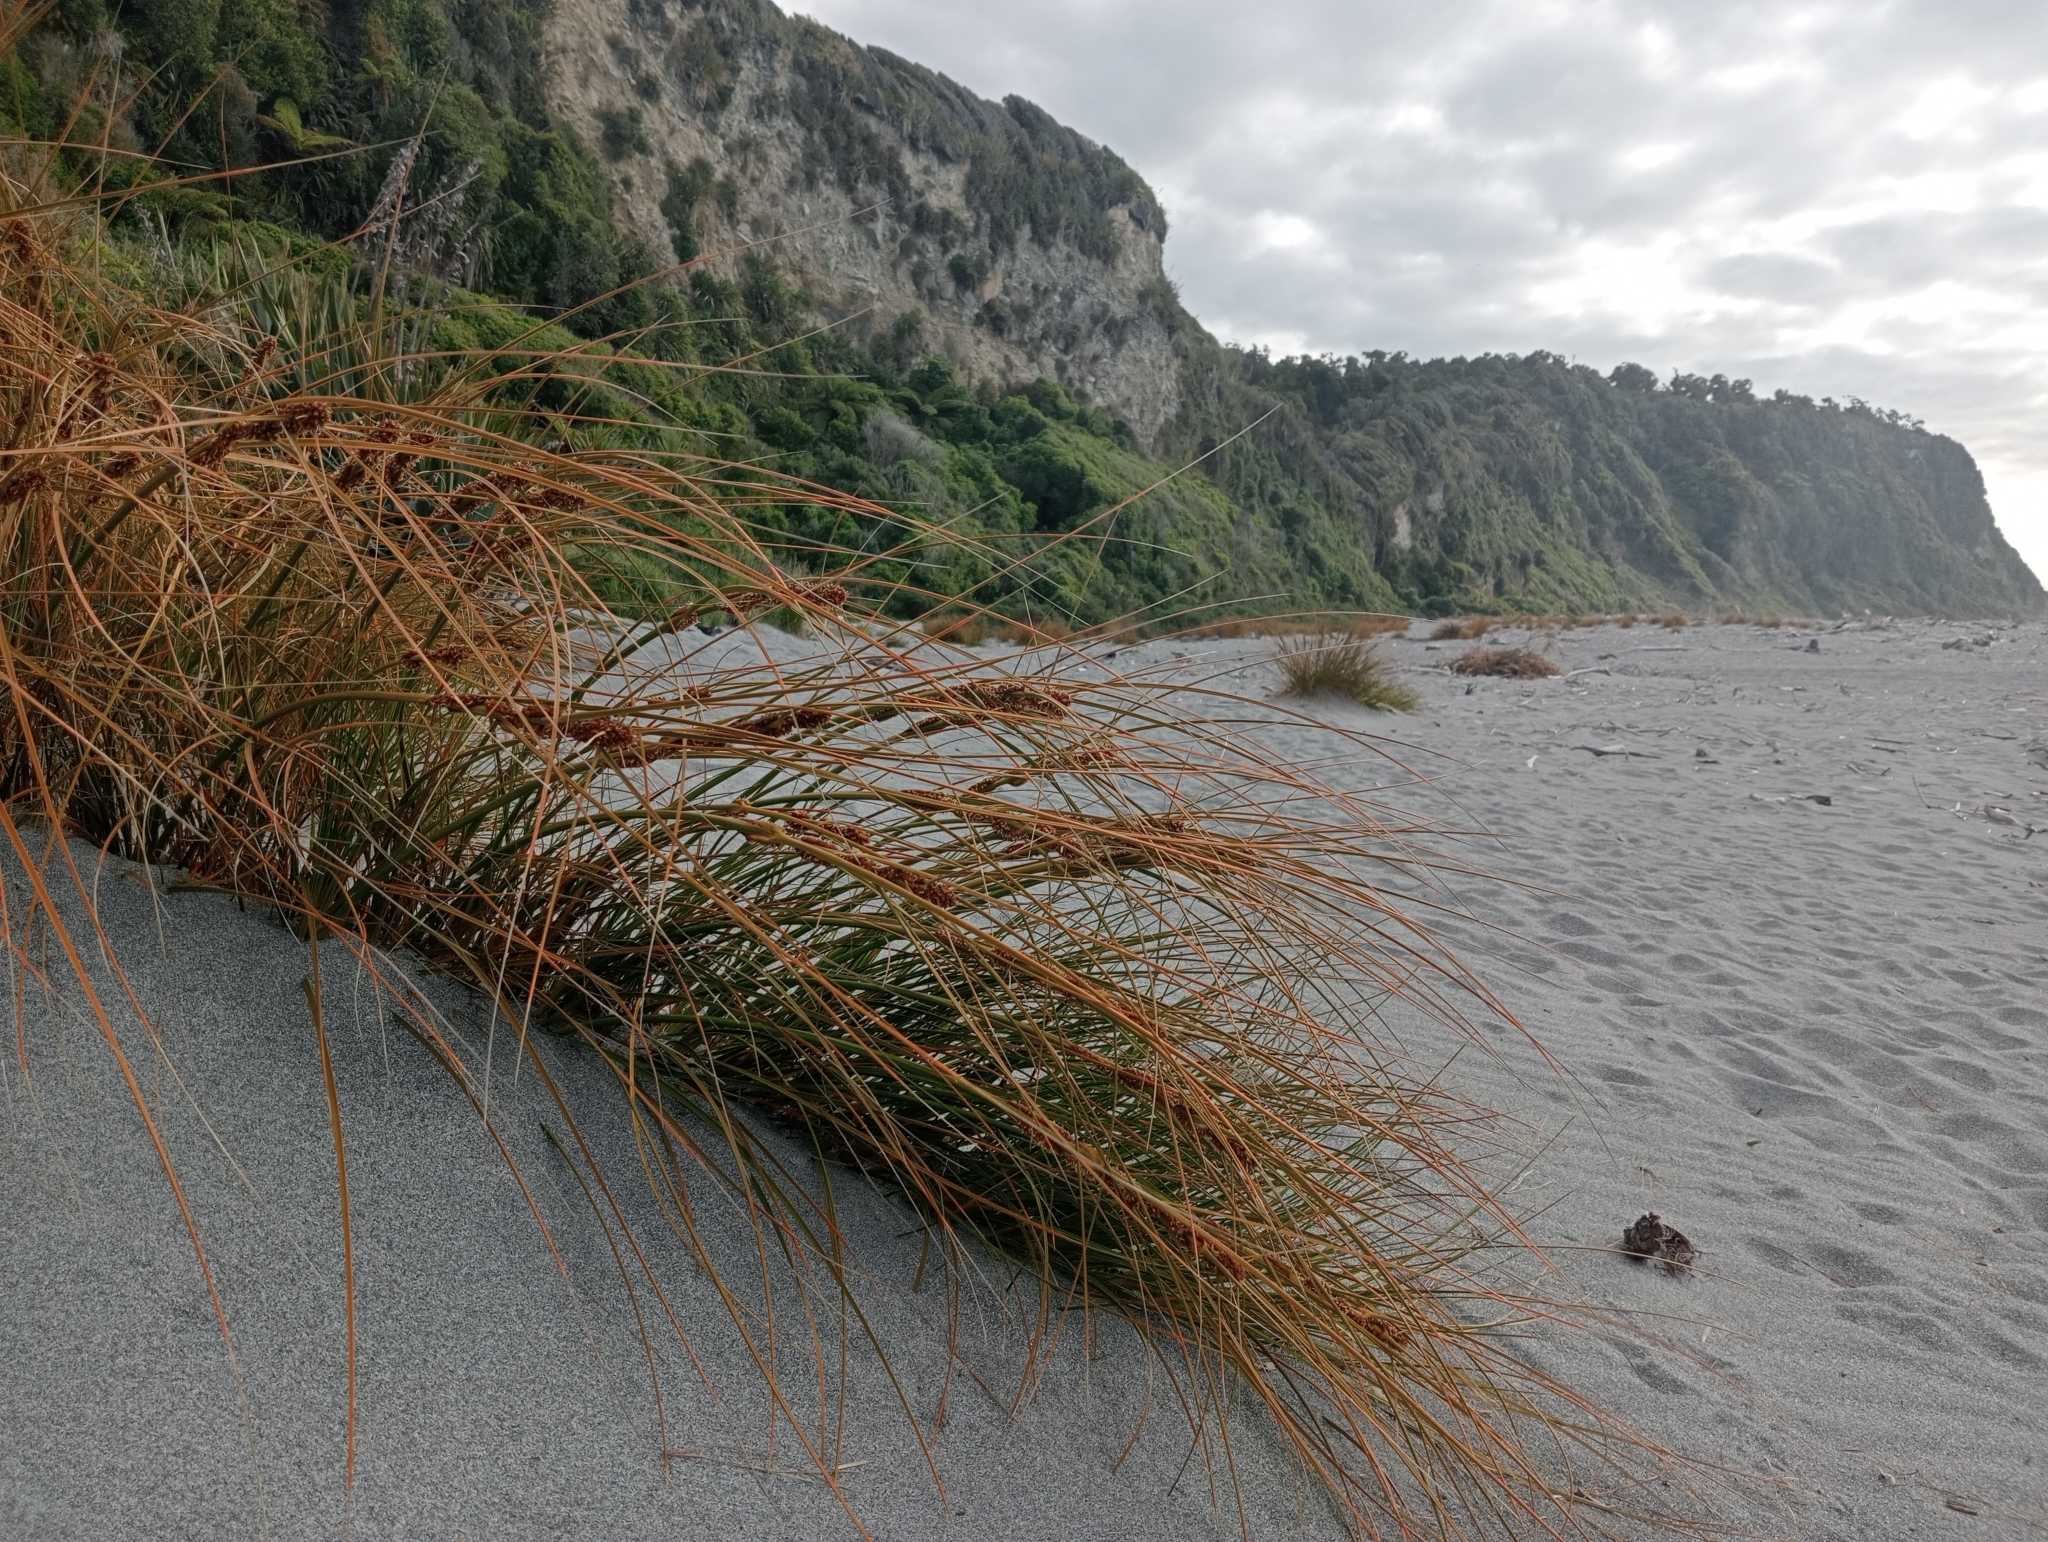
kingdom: Plantae
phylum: Tracheophyta
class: Liliopsida
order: Poales
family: Cyperaceae
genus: Ficinia
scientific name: Ficinia spiralis
